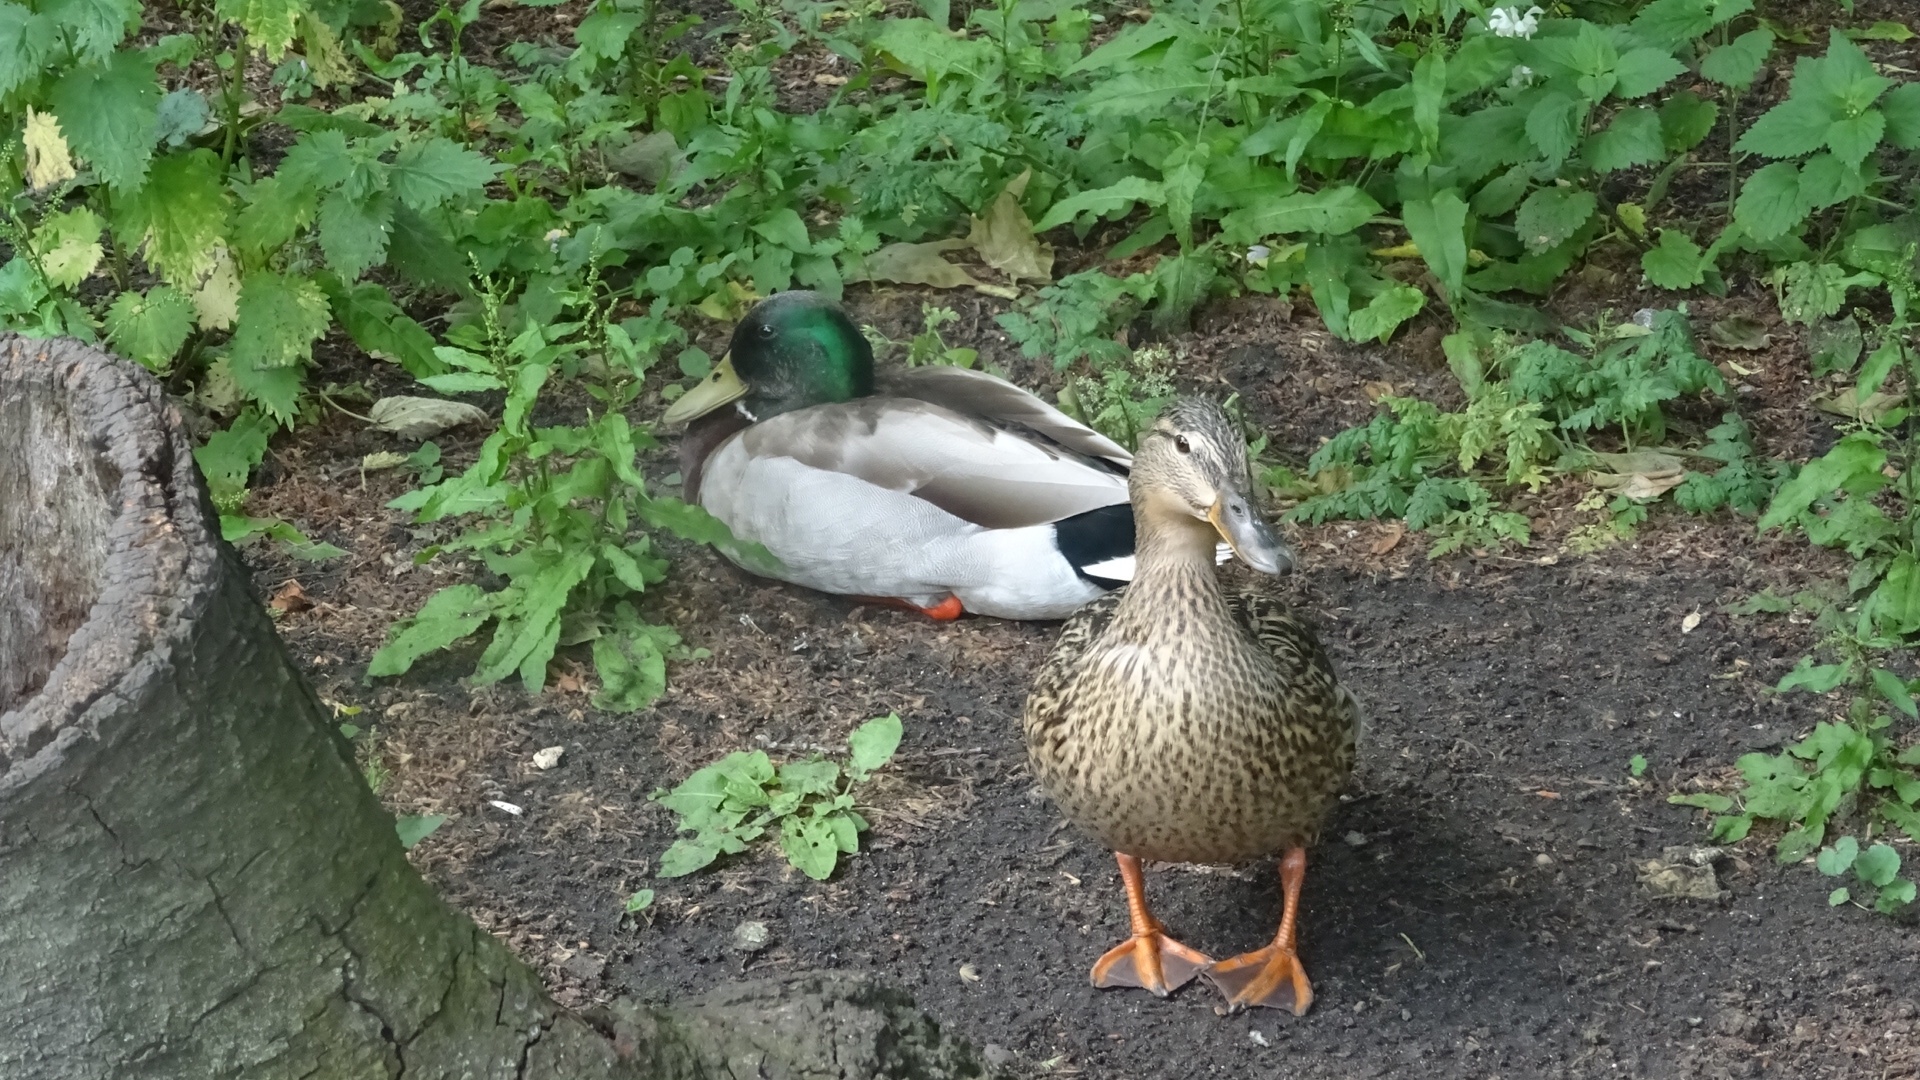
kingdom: Animalia
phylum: Chordata
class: Aves
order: Anseriformes
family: Anatidae
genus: Anas
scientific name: Anas platyrhynchos
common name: Mallard
